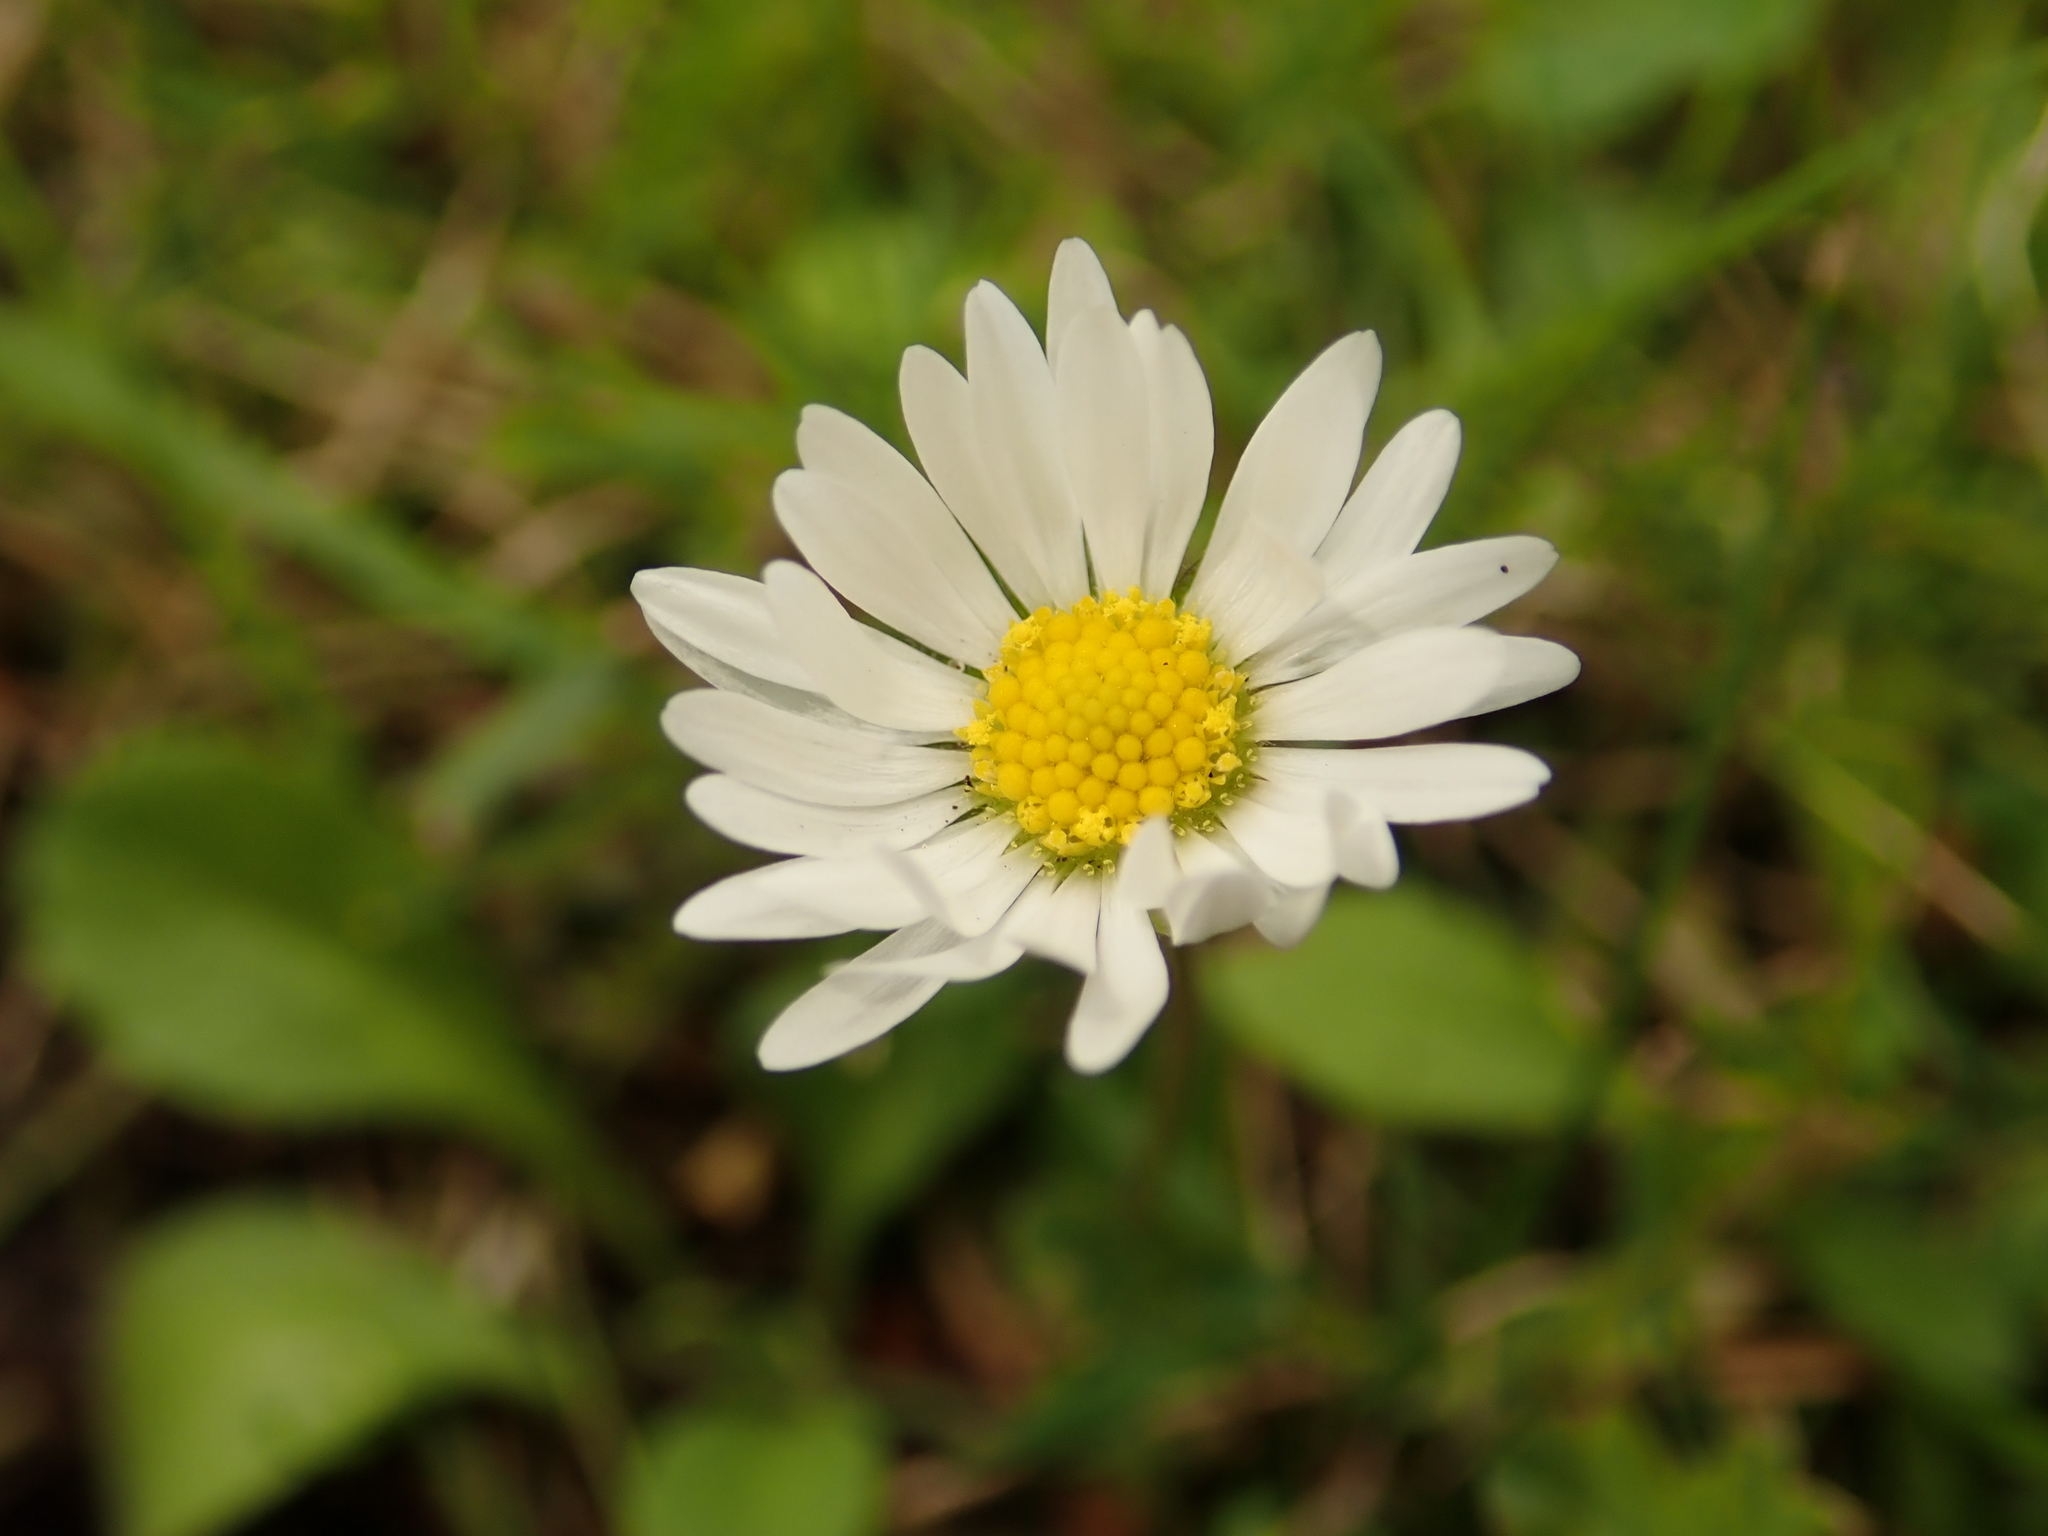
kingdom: Plantae
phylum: Tracheophyta
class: Magnoliopsida
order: Asterales
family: Asteraceae
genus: Bellis
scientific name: Bellis perennis
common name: Lawndaisy
